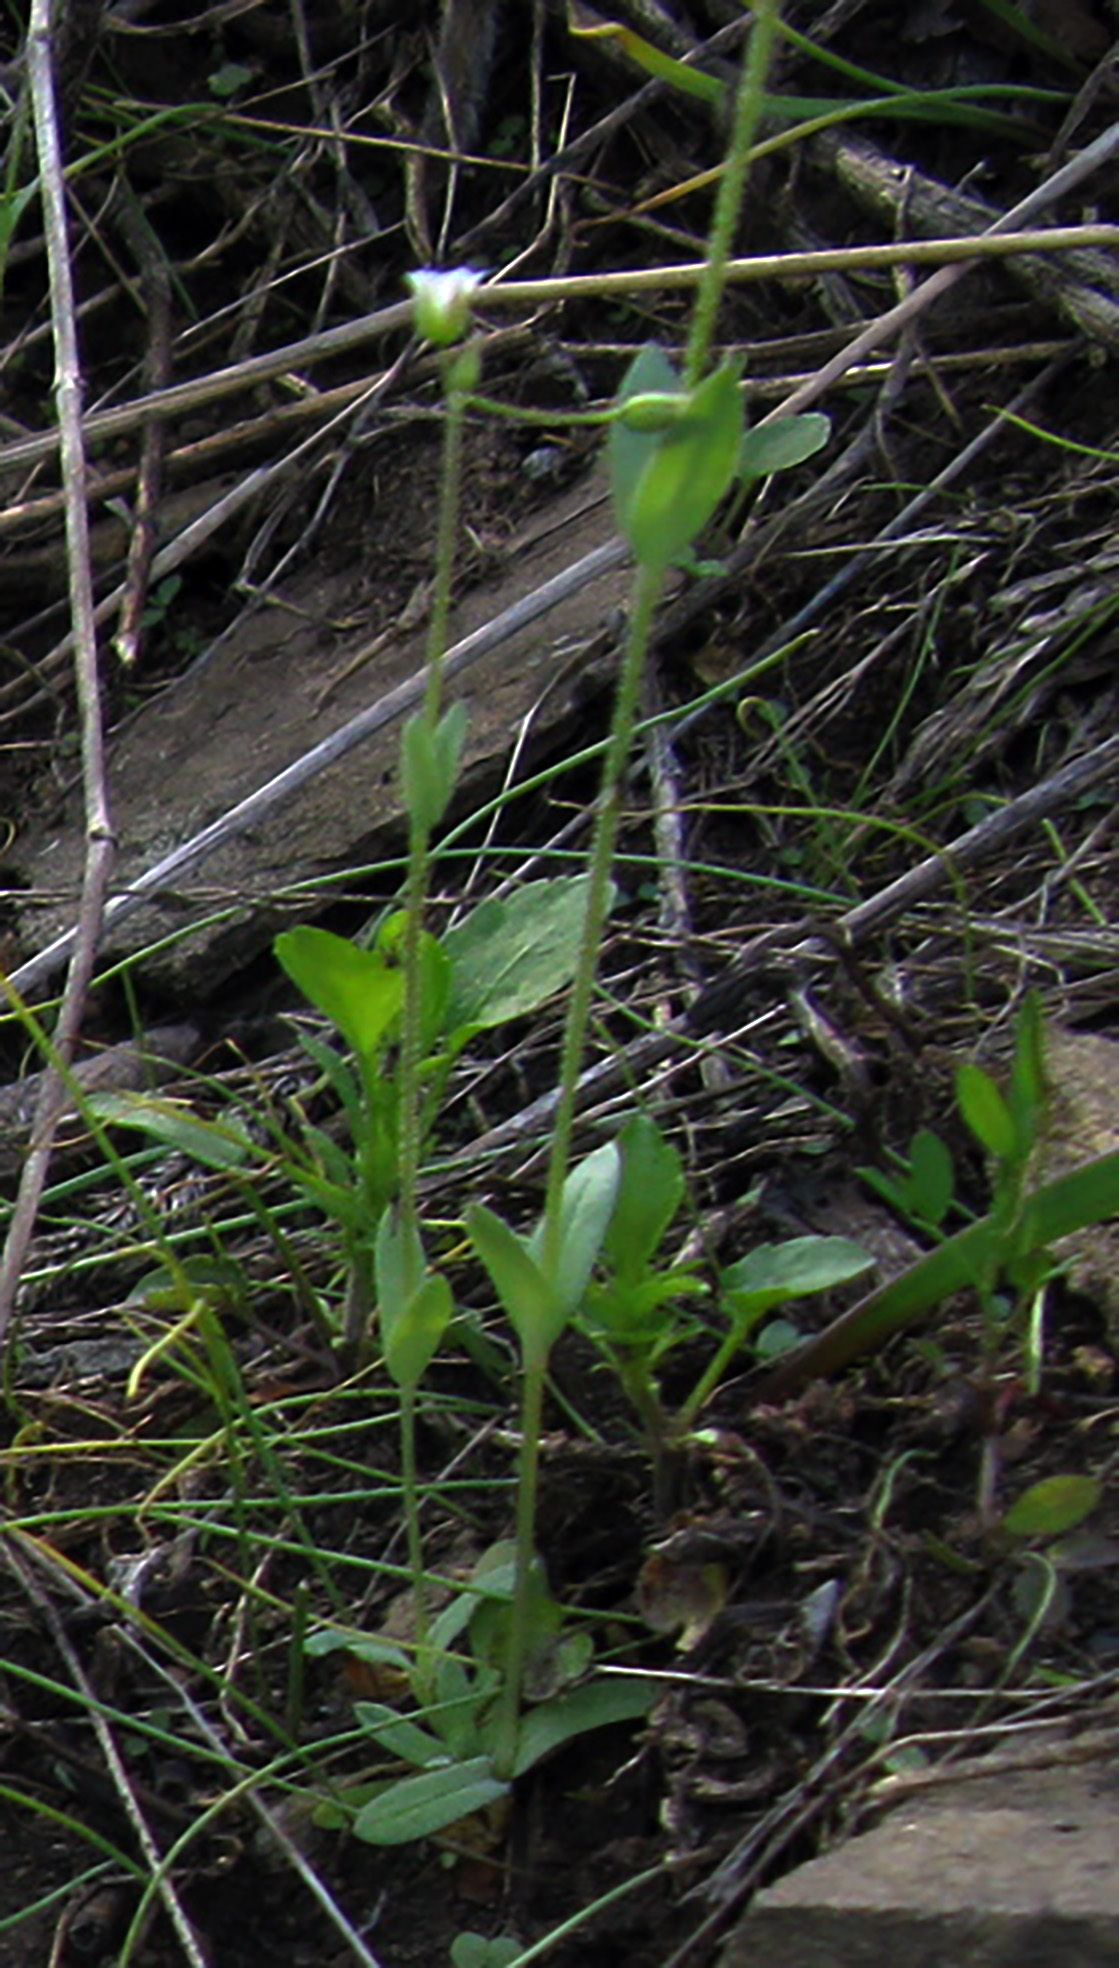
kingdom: Plantae
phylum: Tracheophyta
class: Magnoliopsida
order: Caryophyllales
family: Caryophyllaceae
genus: Holosteum
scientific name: Holosteum umbellatum
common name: Jagged chickweed
